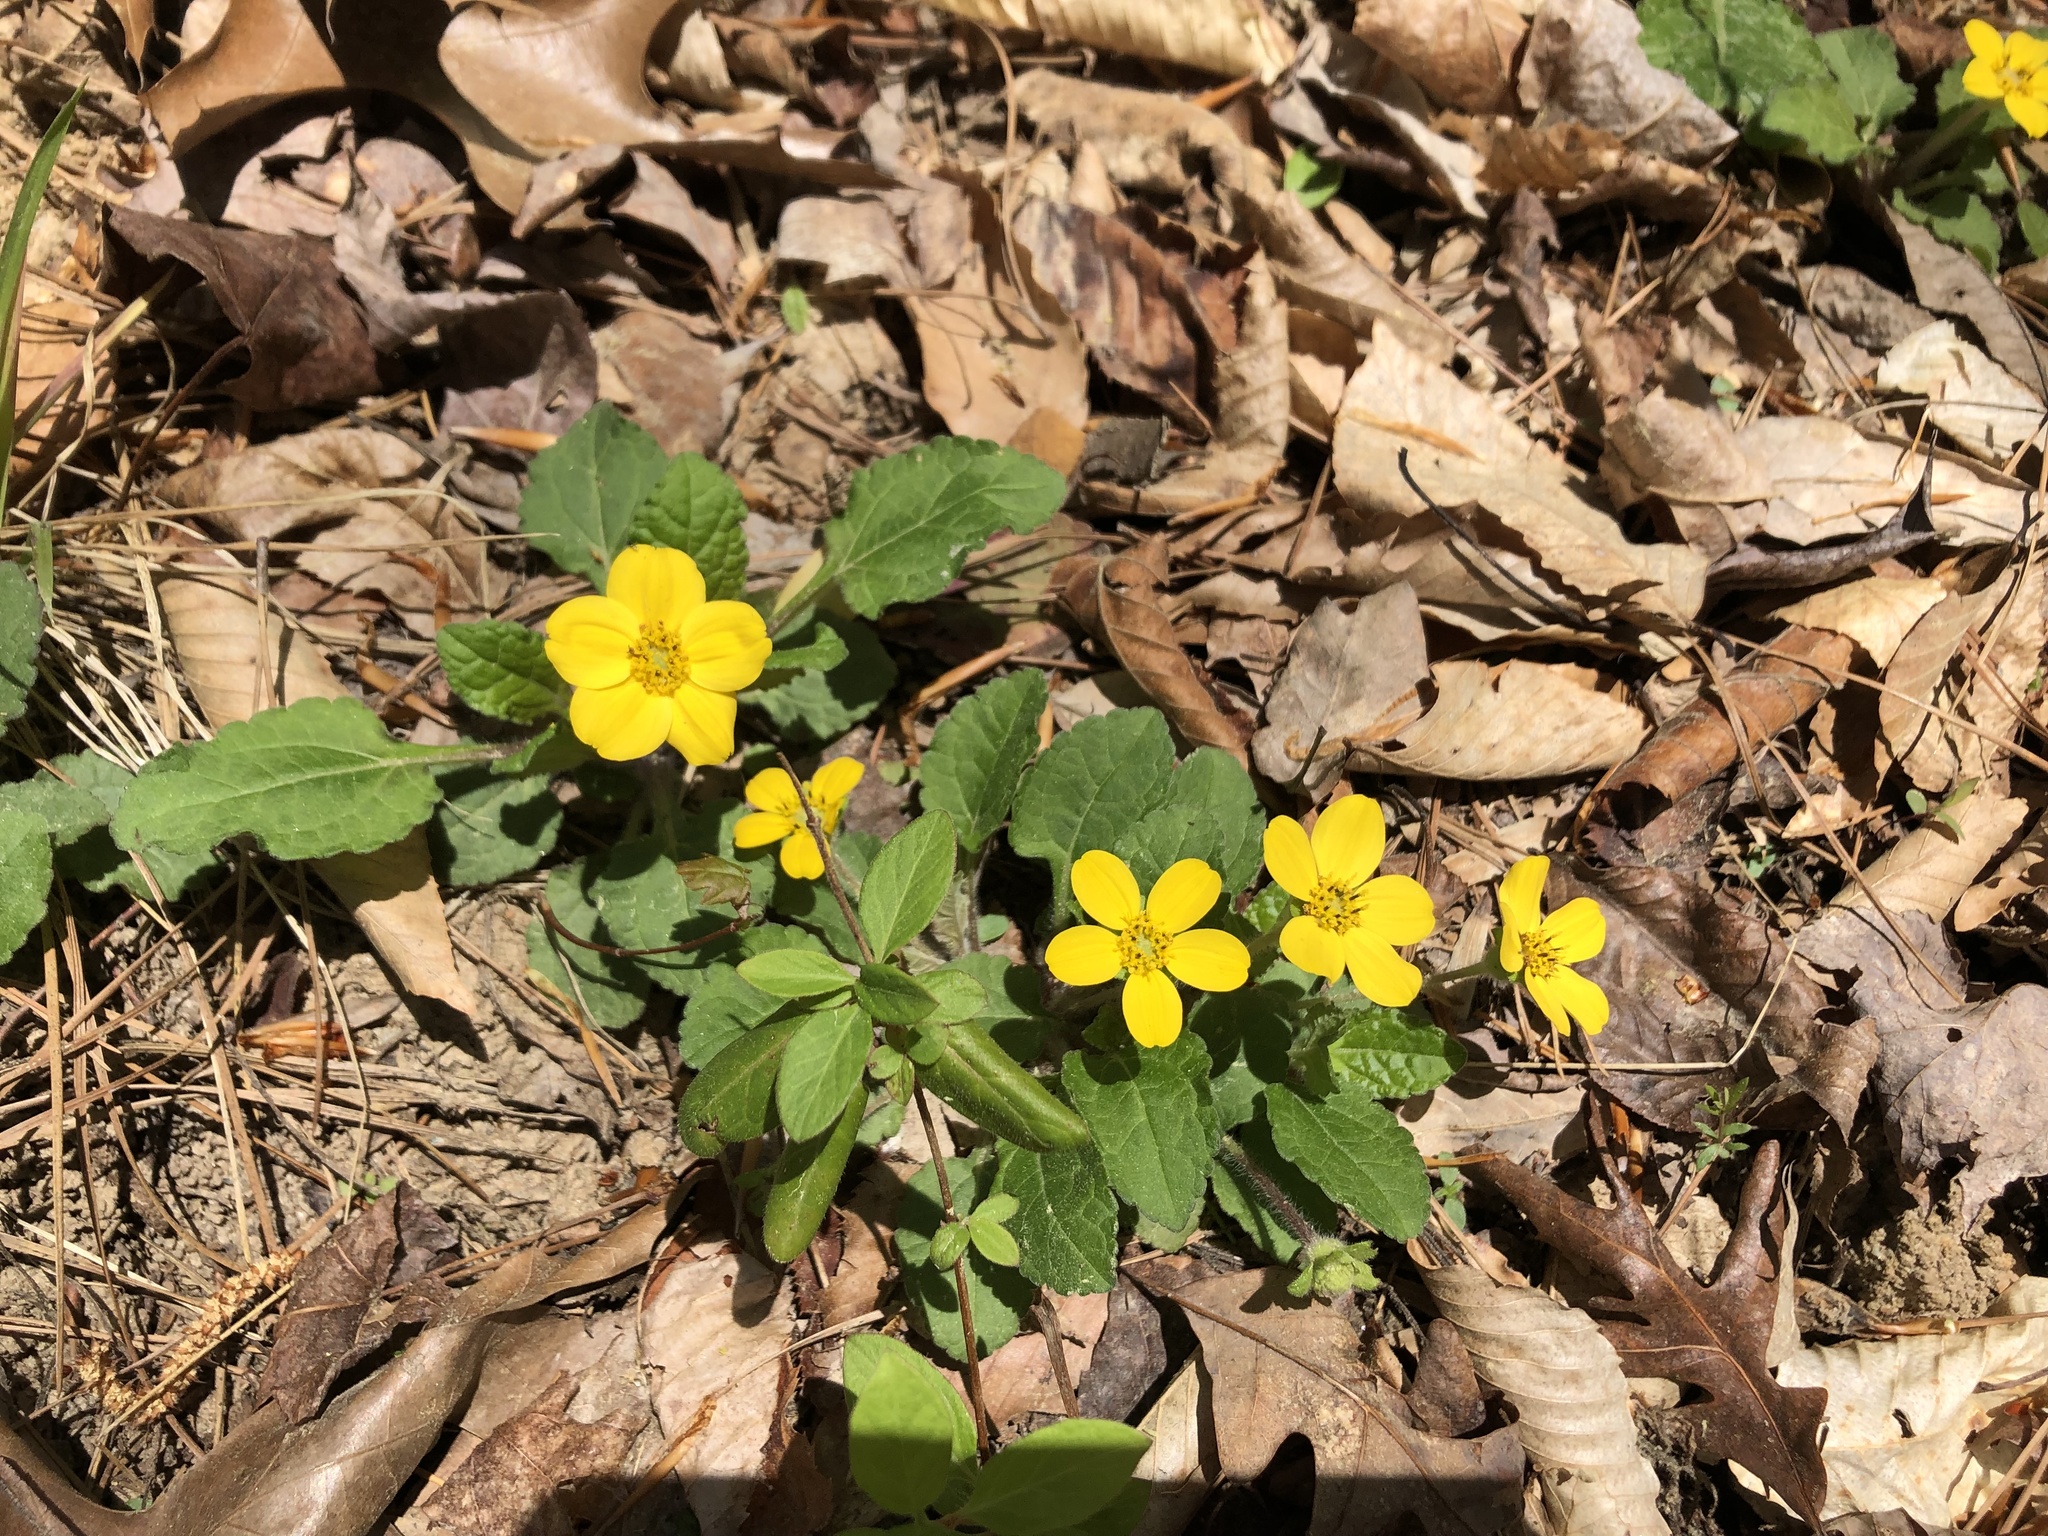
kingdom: Plantae
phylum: Tracheophyta
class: Magnoliopsida
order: Asterales
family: Asteraceae
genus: Chrysogonum
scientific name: Chrysogonum virginianum
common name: Golden-knee
